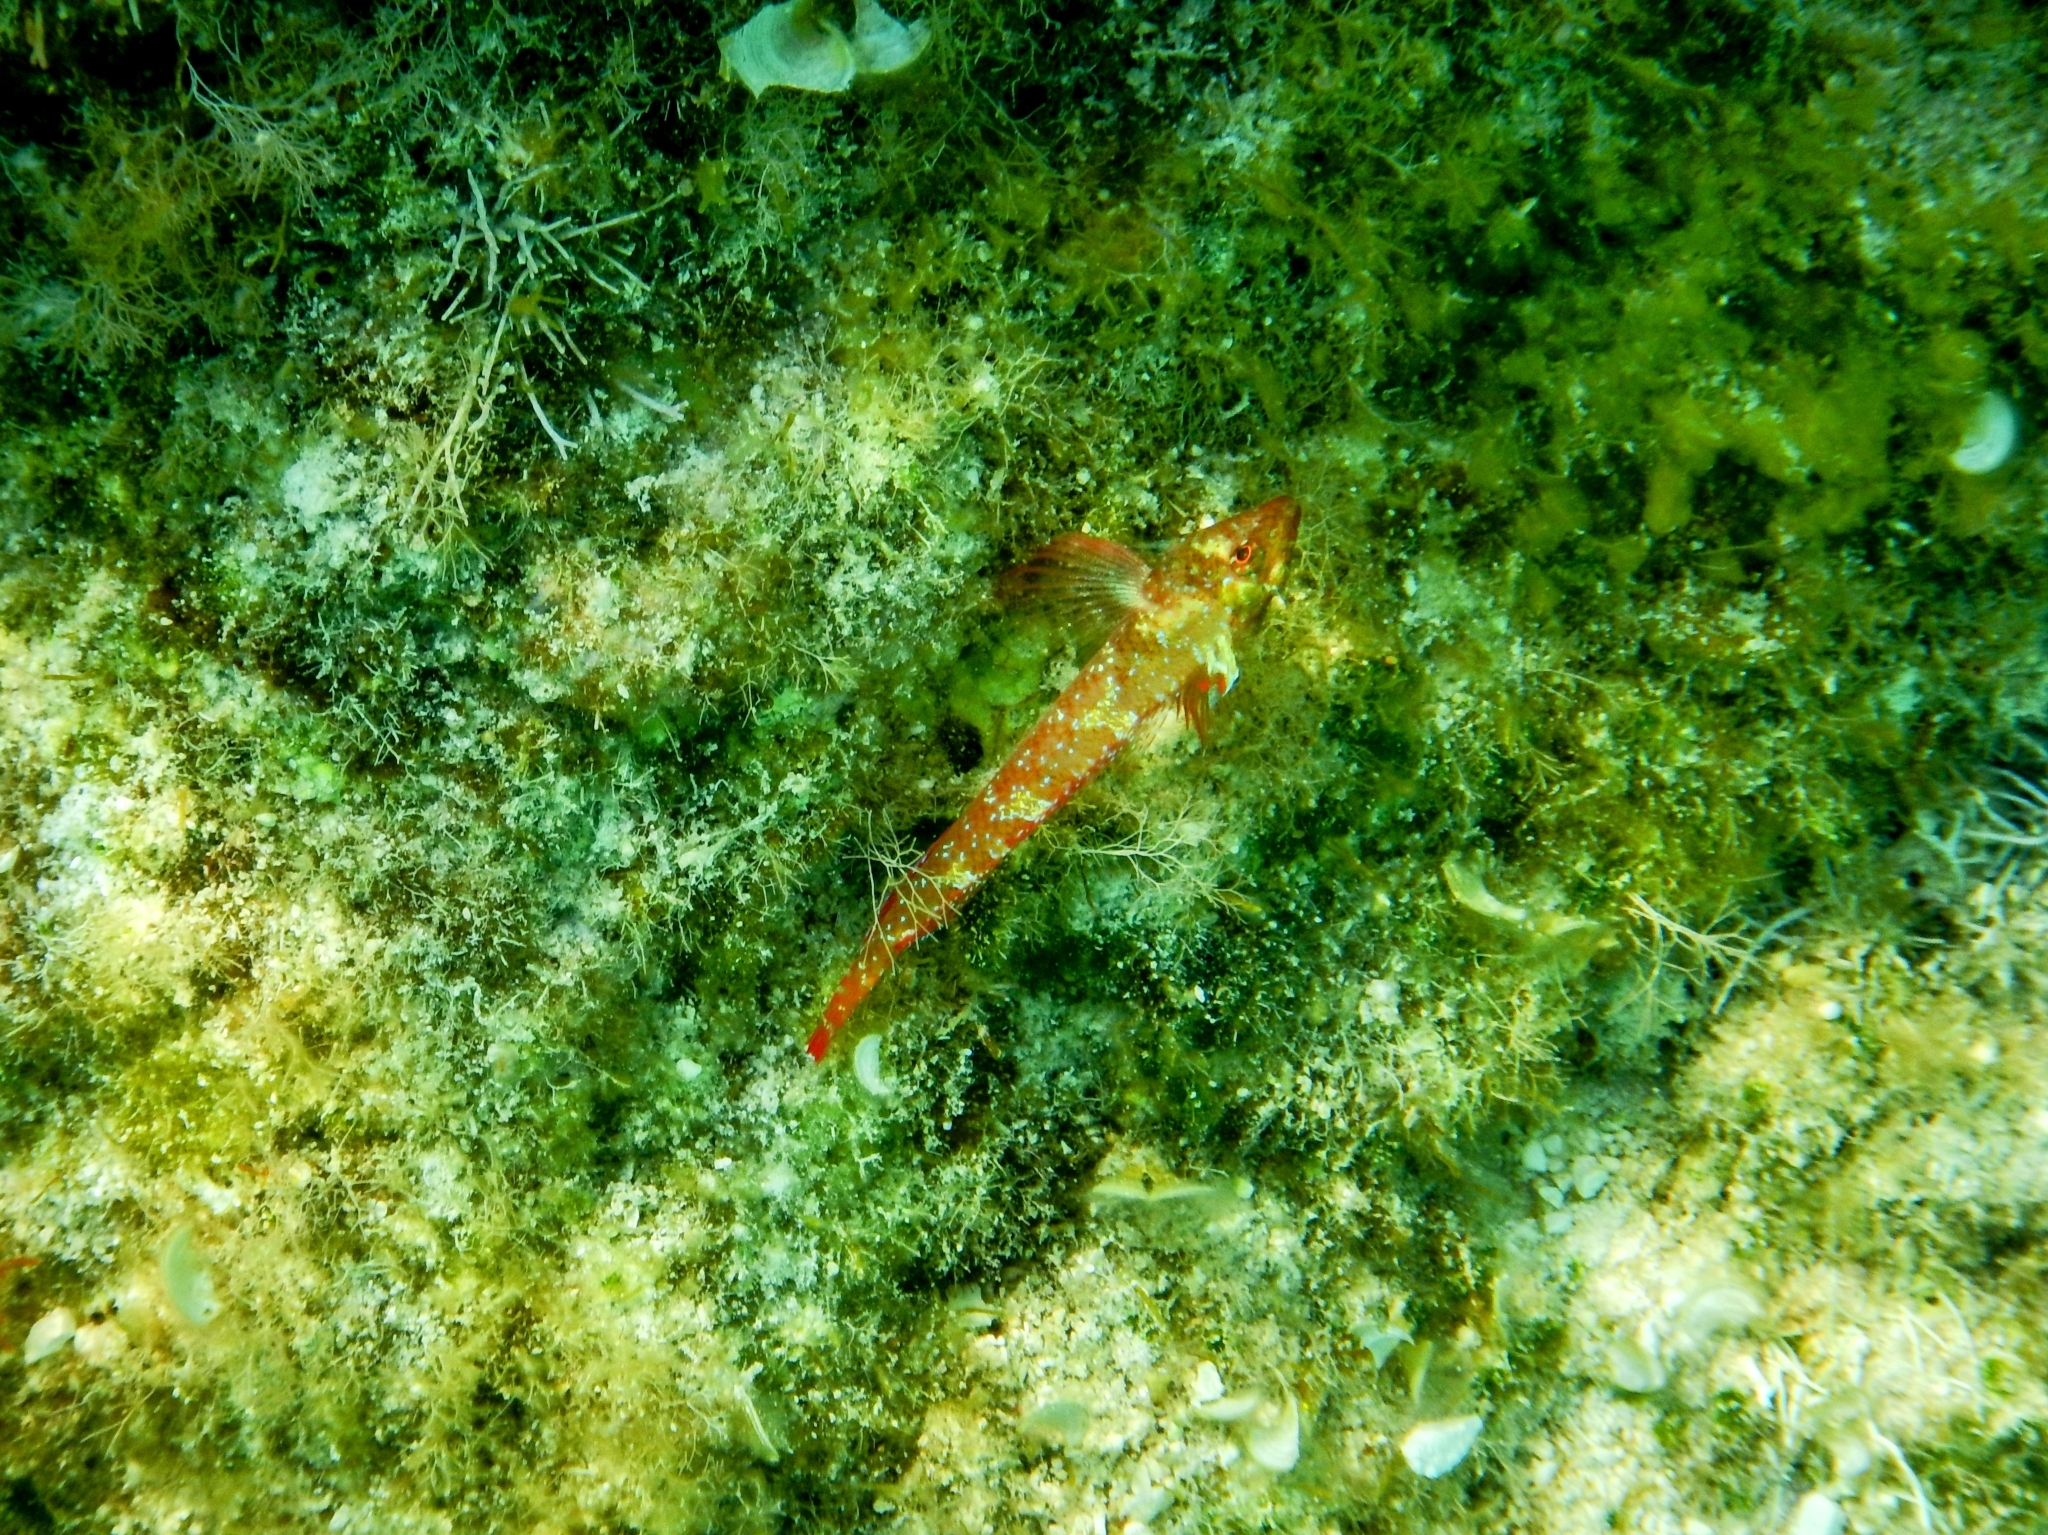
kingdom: Animalia
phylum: Chordata
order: Perciformes
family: Tripterygiidae
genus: Tripterygion
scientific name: Tripterygion tripteronotum
